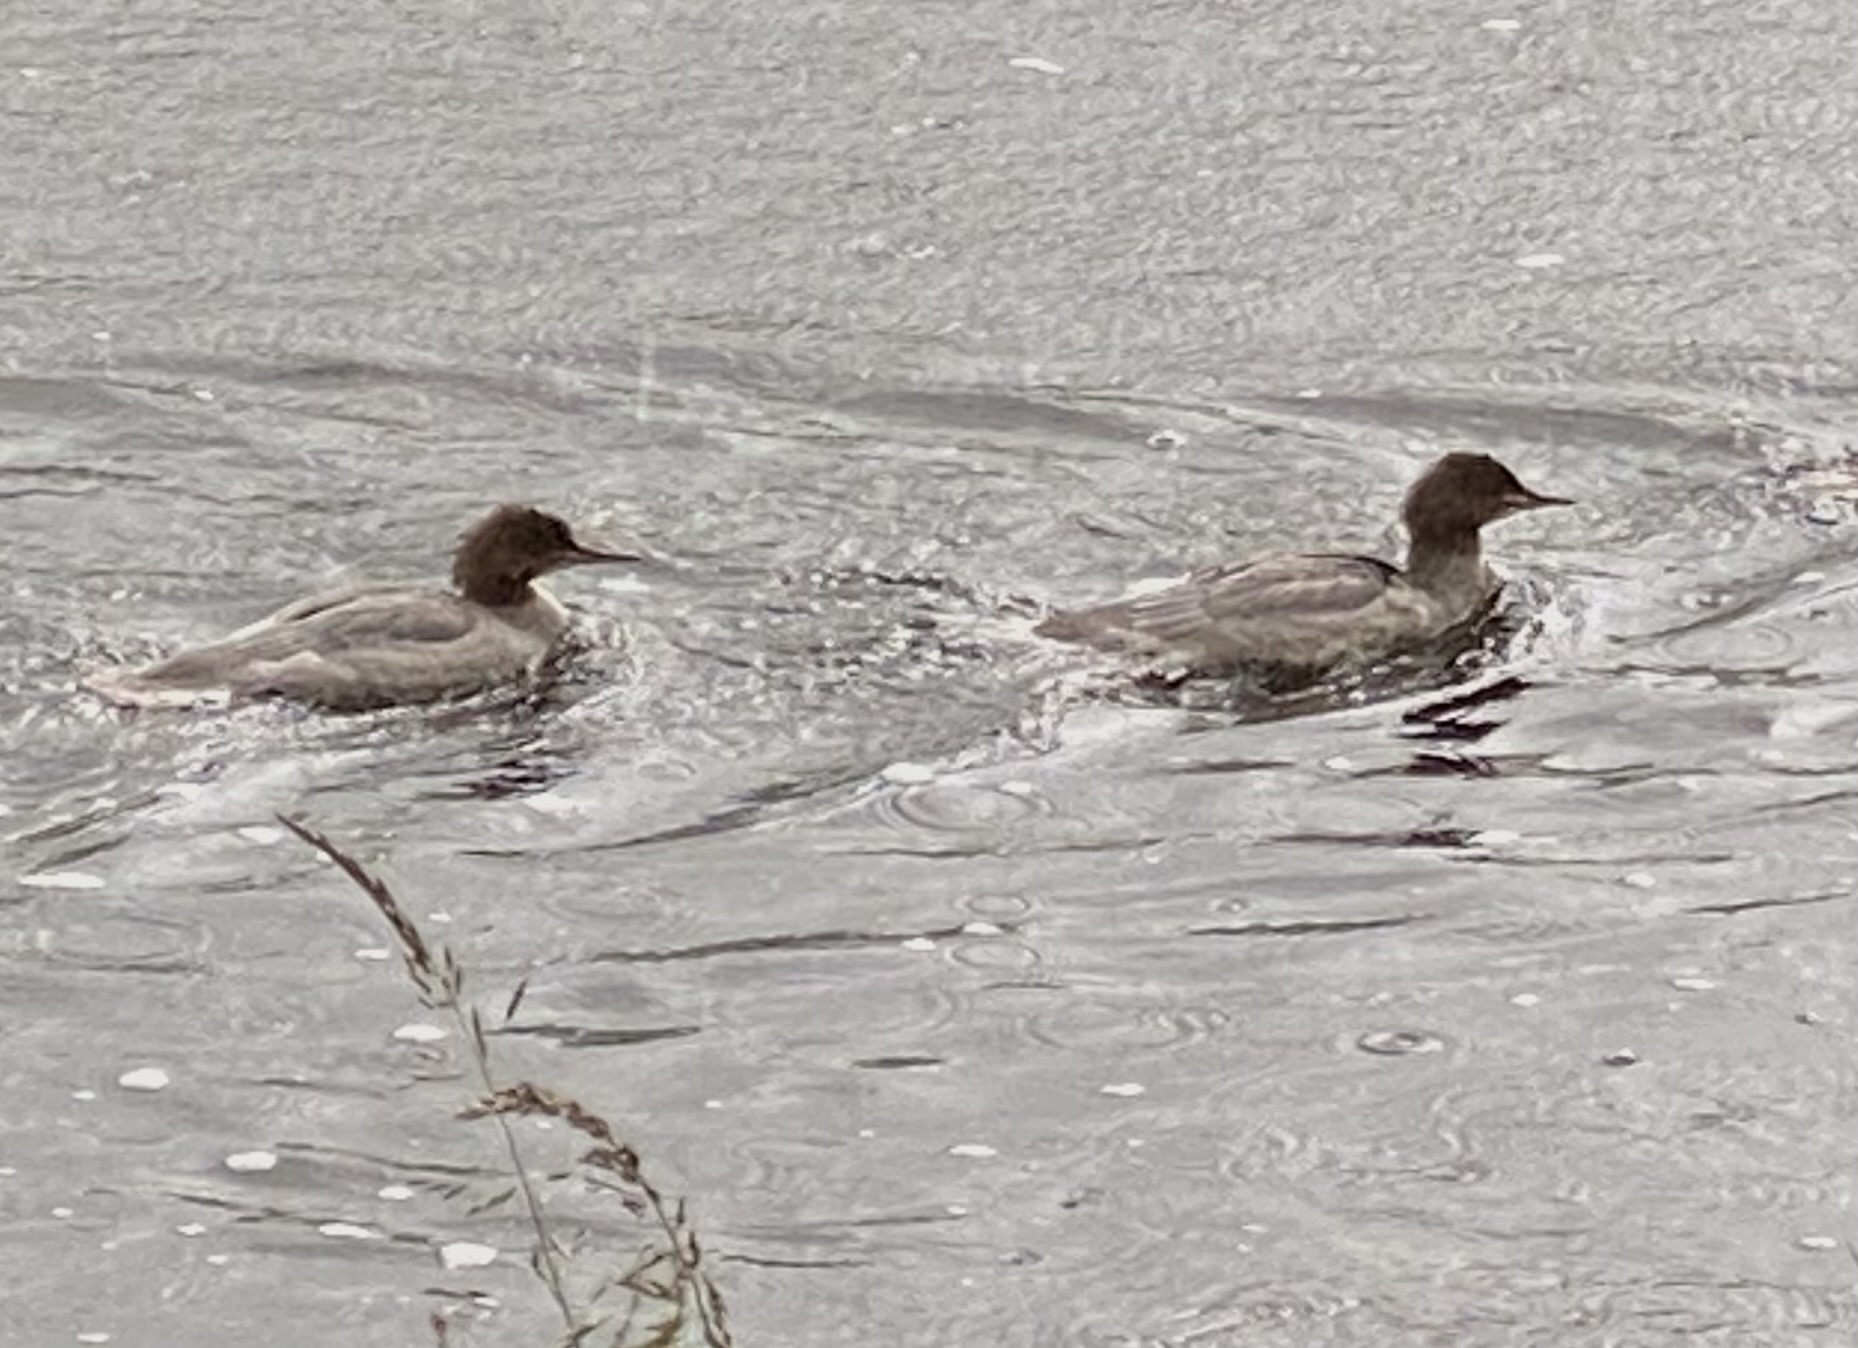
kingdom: Animalia
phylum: Chordata
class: Aves
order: Anseriformes
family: Anatidae
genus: Mergus
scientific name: Mergus merganser
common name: Common merganser
